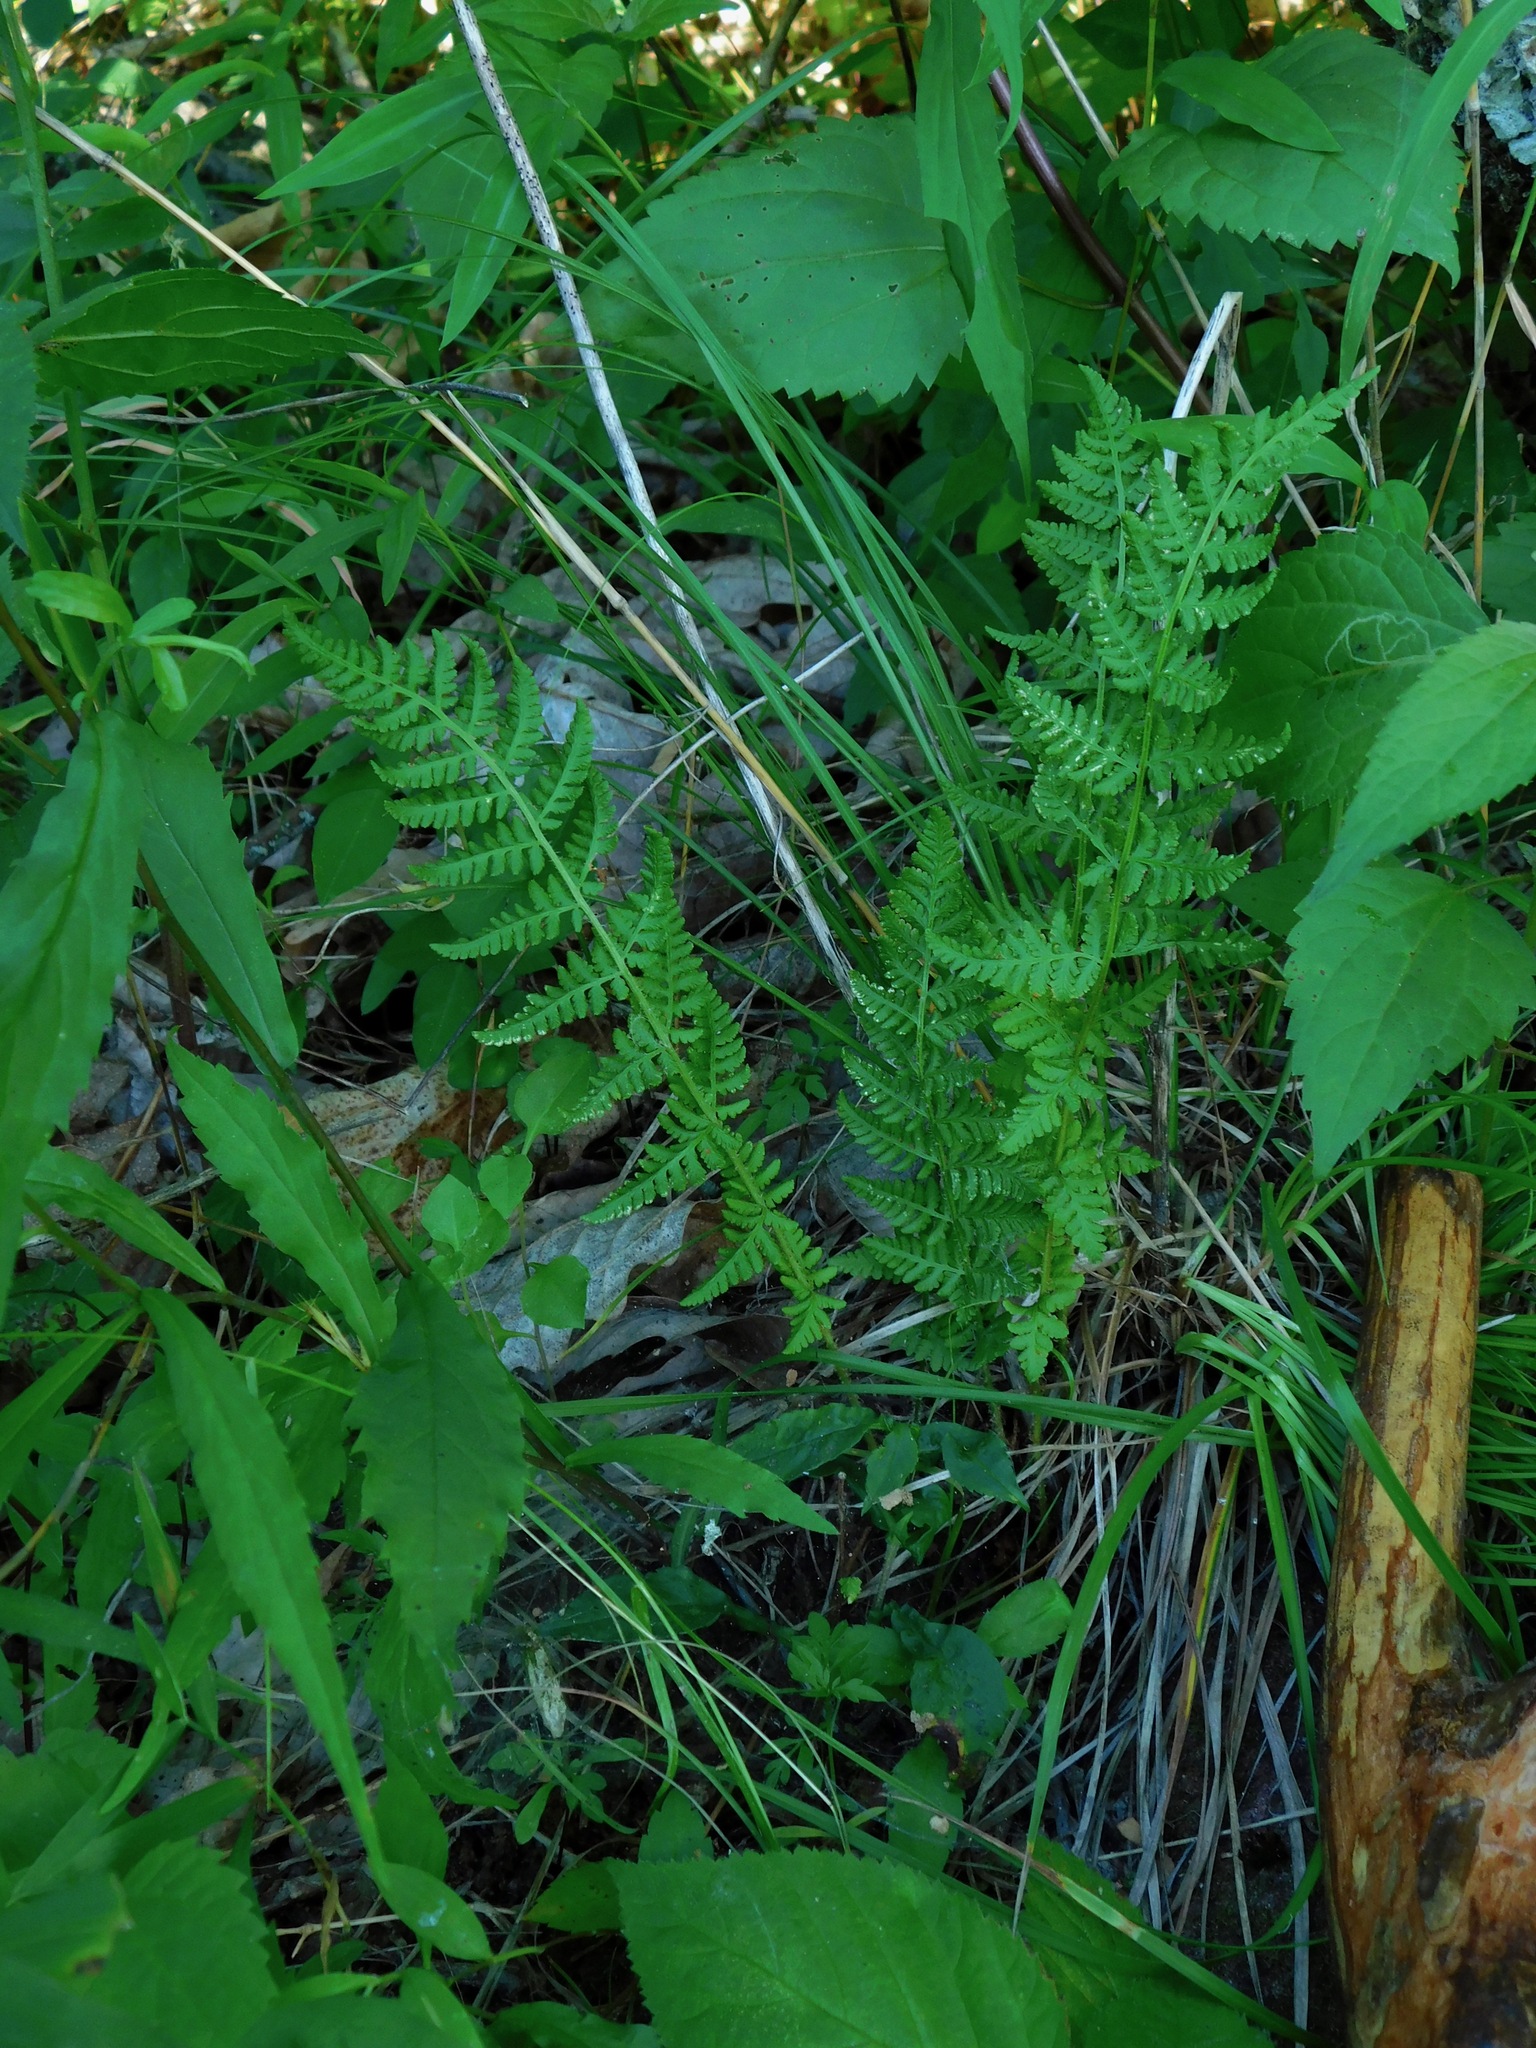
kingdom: Plantae
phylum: Tracheophyta
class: Polypodiopsida
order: Polypodiales
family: Woodsiaceae
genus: Physematium
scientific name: Physematium obtusum
